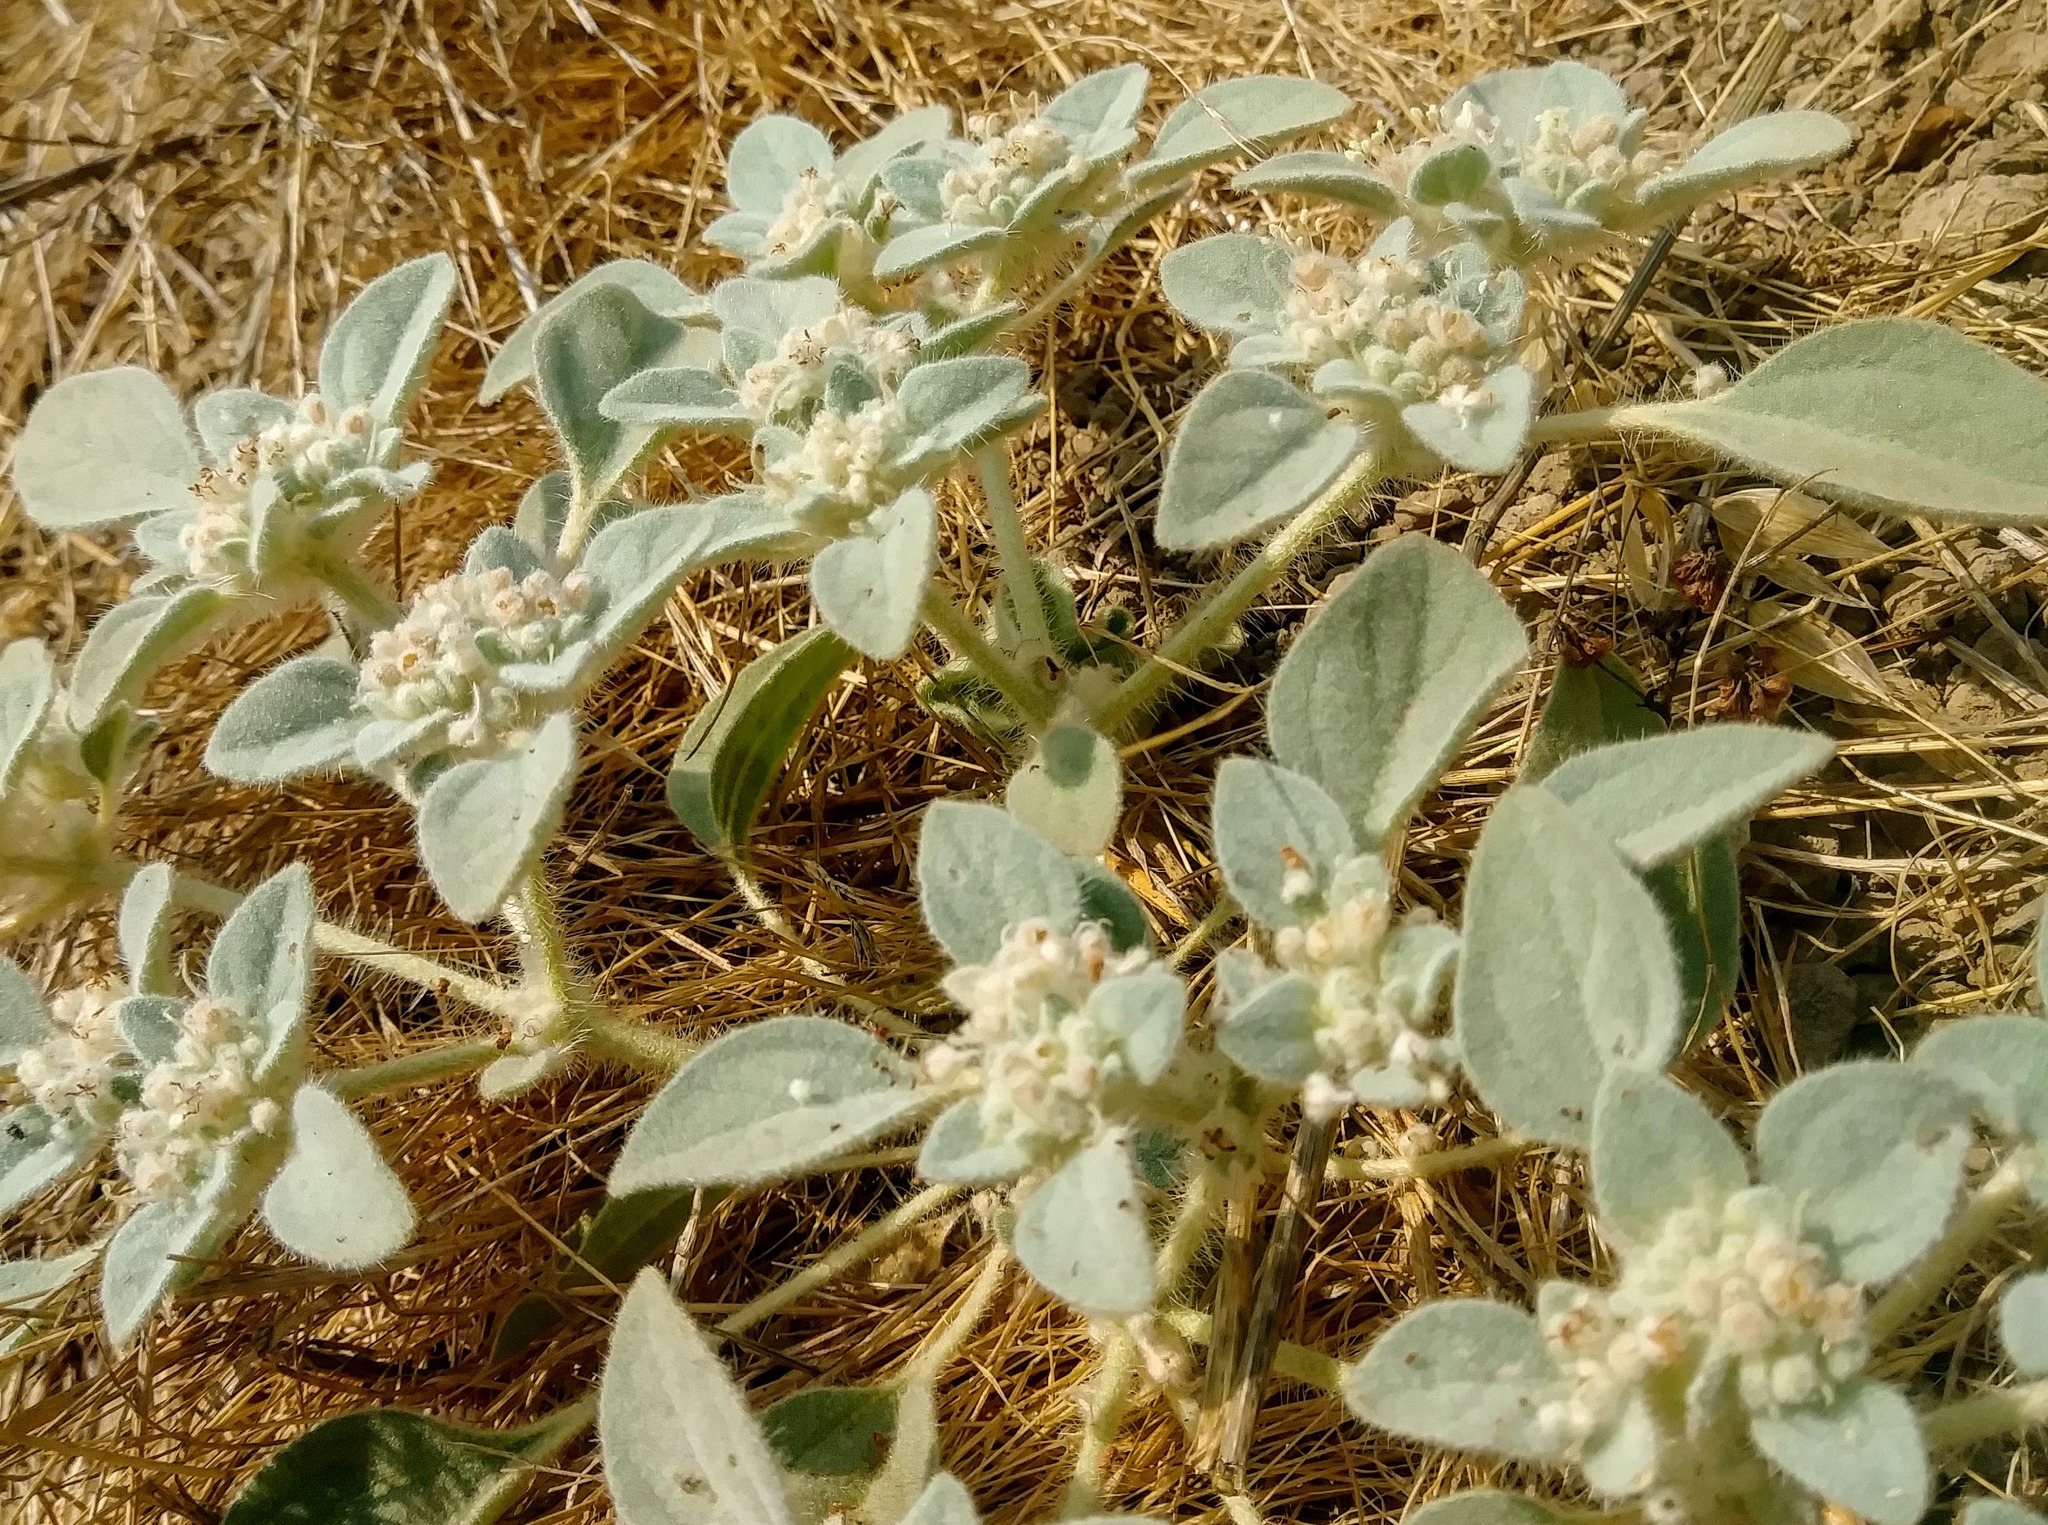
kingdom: Plantae
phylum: Tracheophyta
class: Magnoliopsida
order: Malpighiales
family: Euphorbiaceae
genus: Croton
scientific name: Croton setiger
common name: Dove weed
